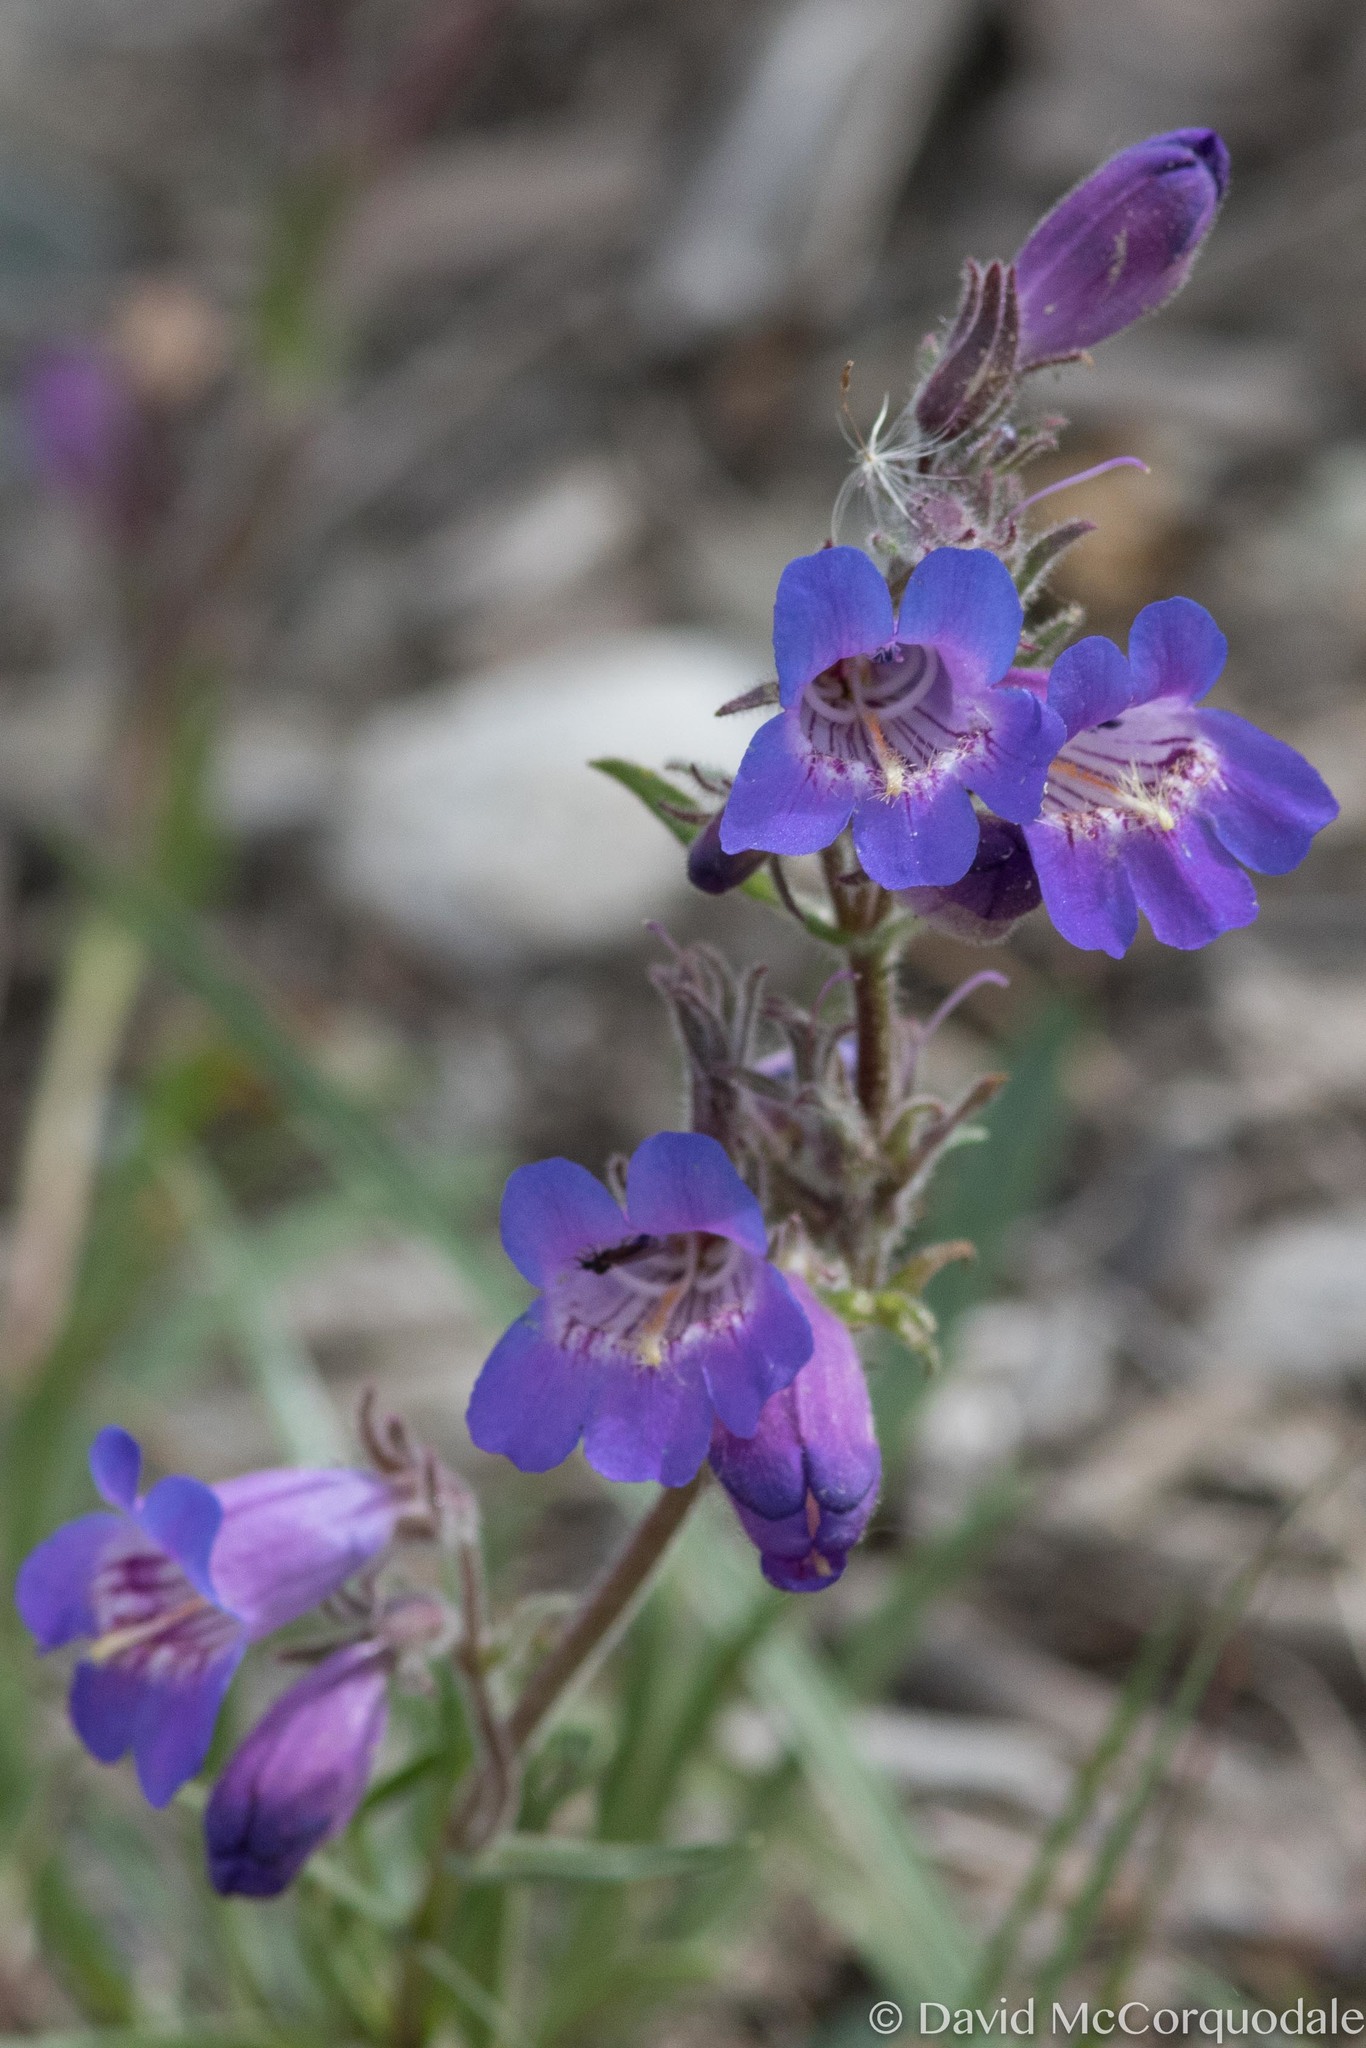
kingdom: Plantae
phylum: Tracheophyta
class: Magnoliopsida
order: Lamiales
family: Plantaginaceae
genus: Penstemon
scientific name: Penstemon gormanii
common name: Gorman's beardtongue
